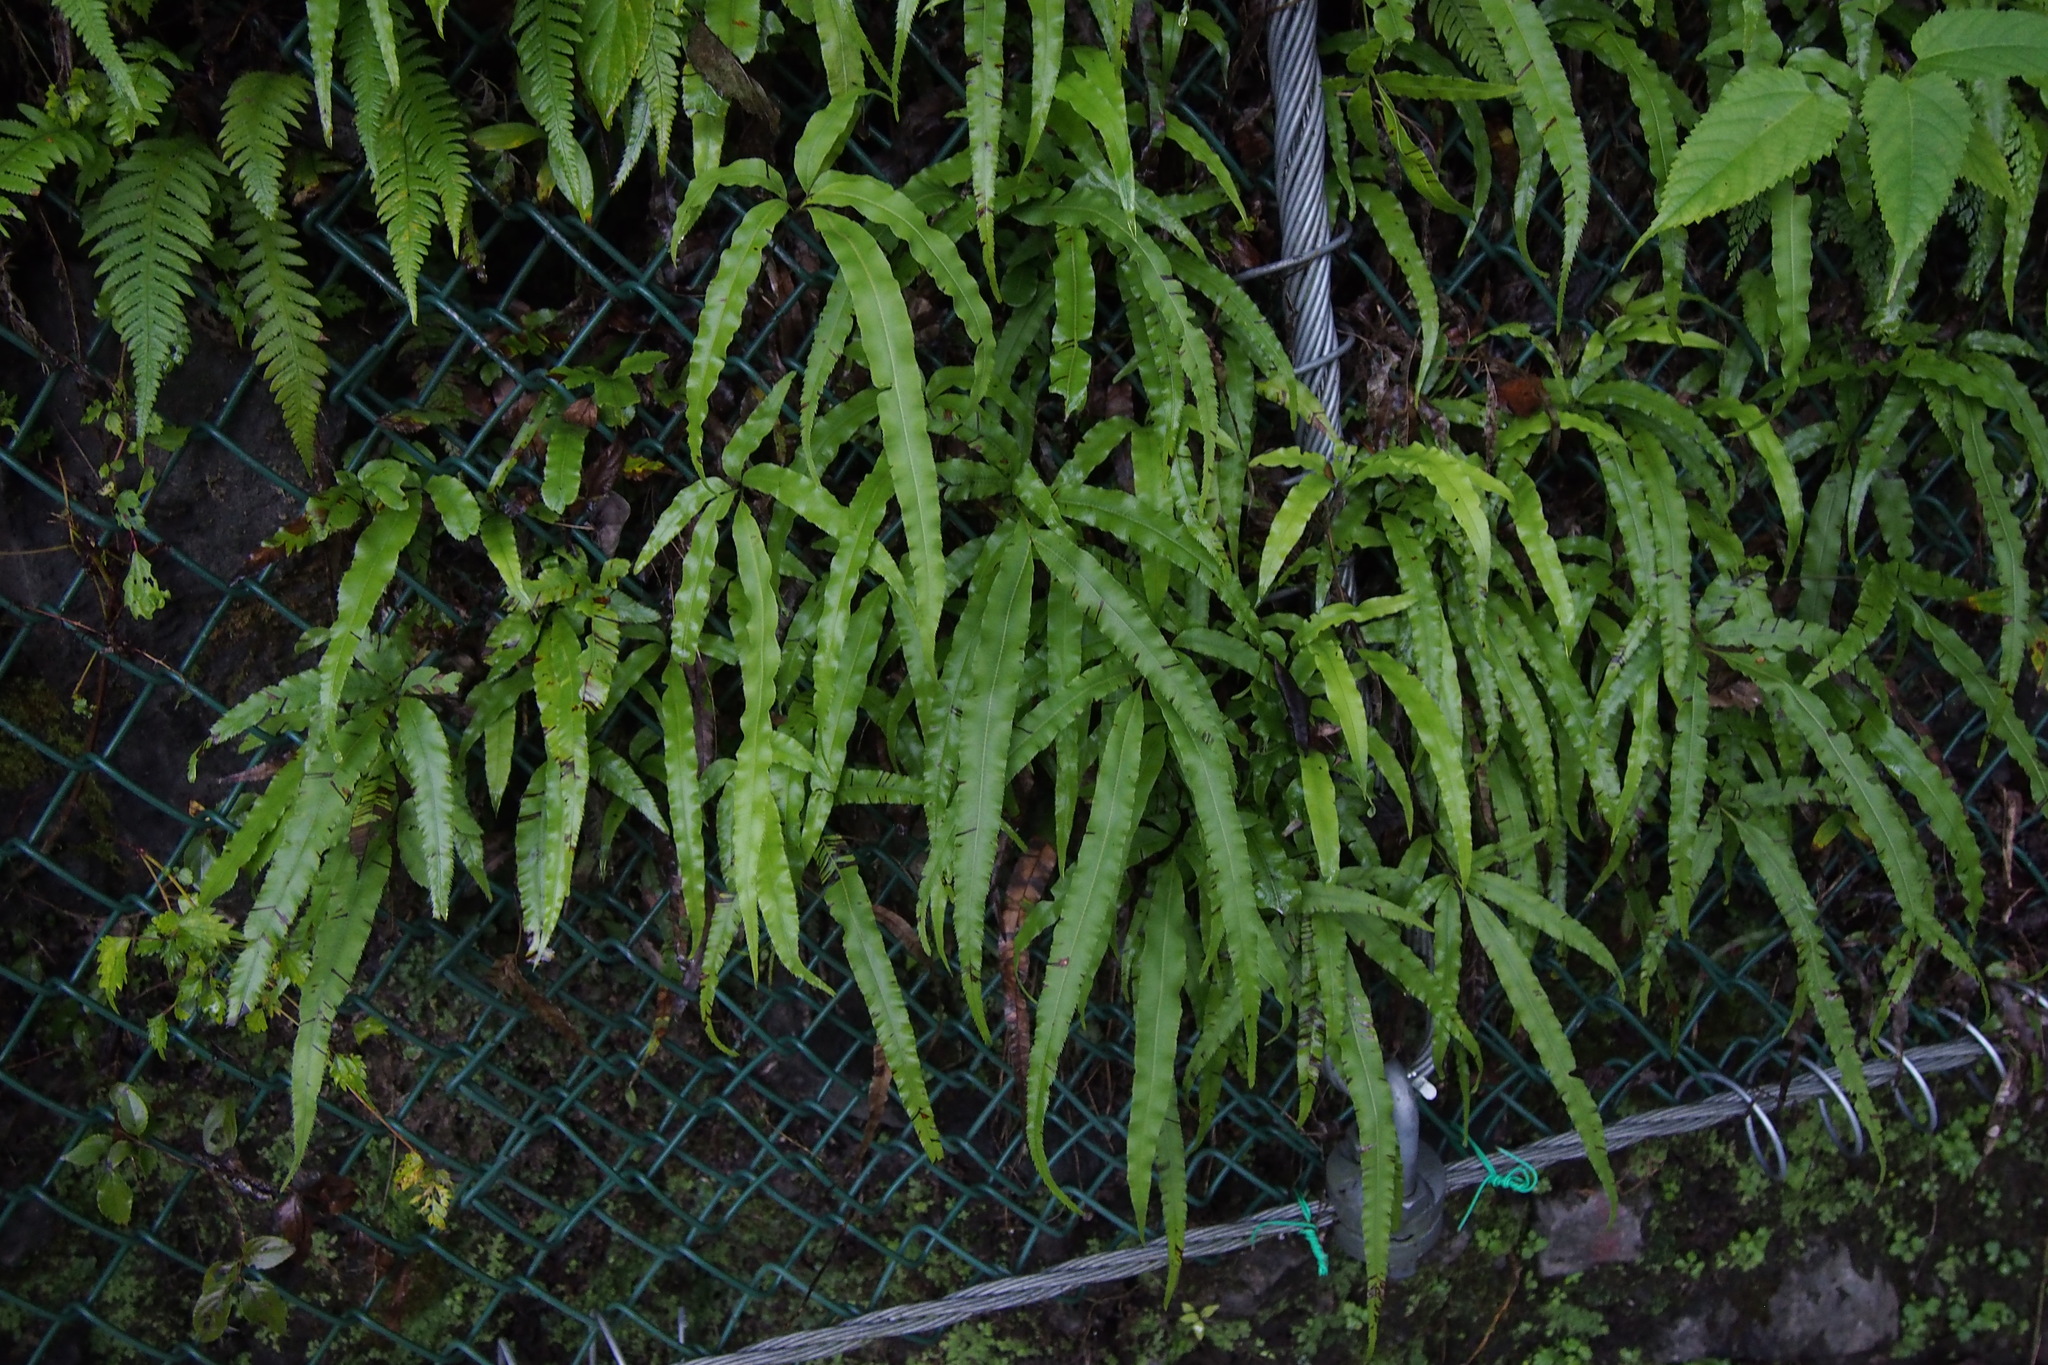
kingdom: Plantae
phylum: Tracheophyta
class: Polypodiopsida
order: Polypodiales
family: Pteridaceae
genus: Pteris
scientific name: Pteris cretica
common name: Ribbon fern
